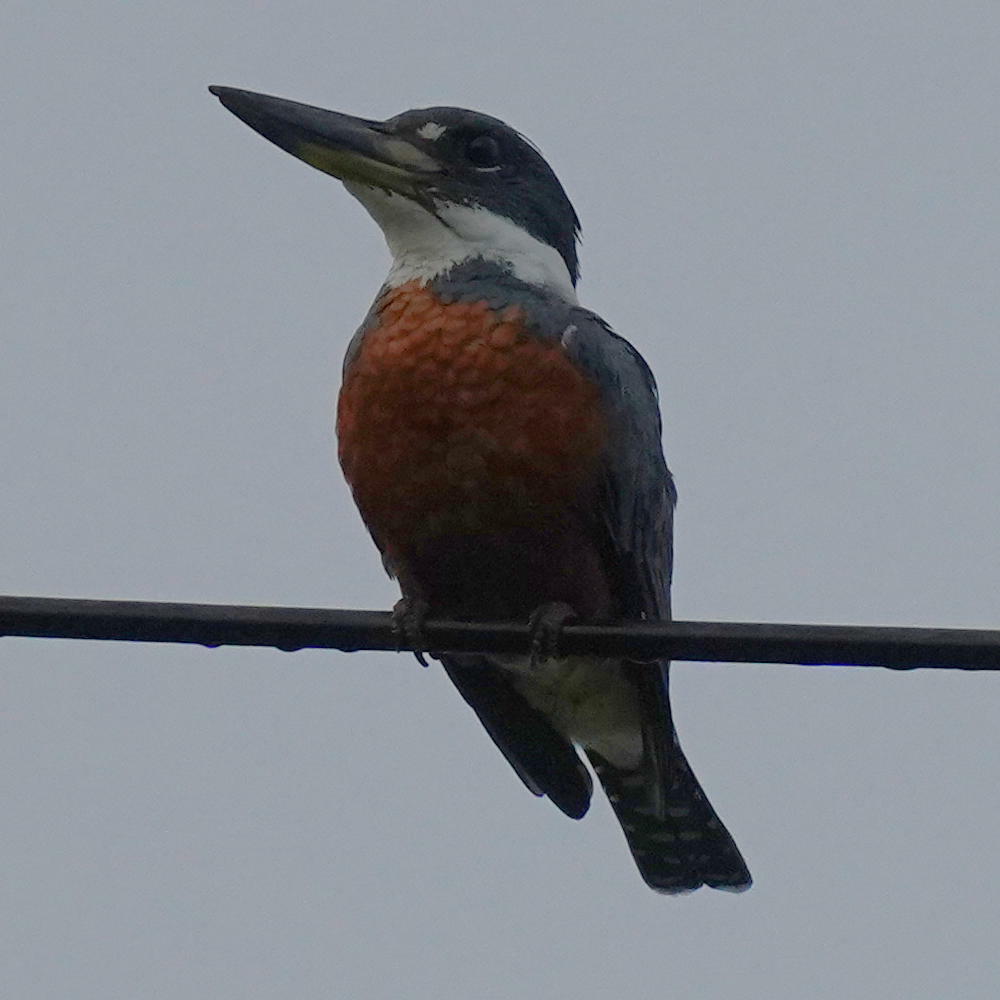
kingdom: Animalia
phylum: Chordata
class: Aves
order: Coraciiformes
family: Alcedinidae
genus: Megaceryle
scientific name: Megaceryle torquata
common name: Ringed kingfisher
